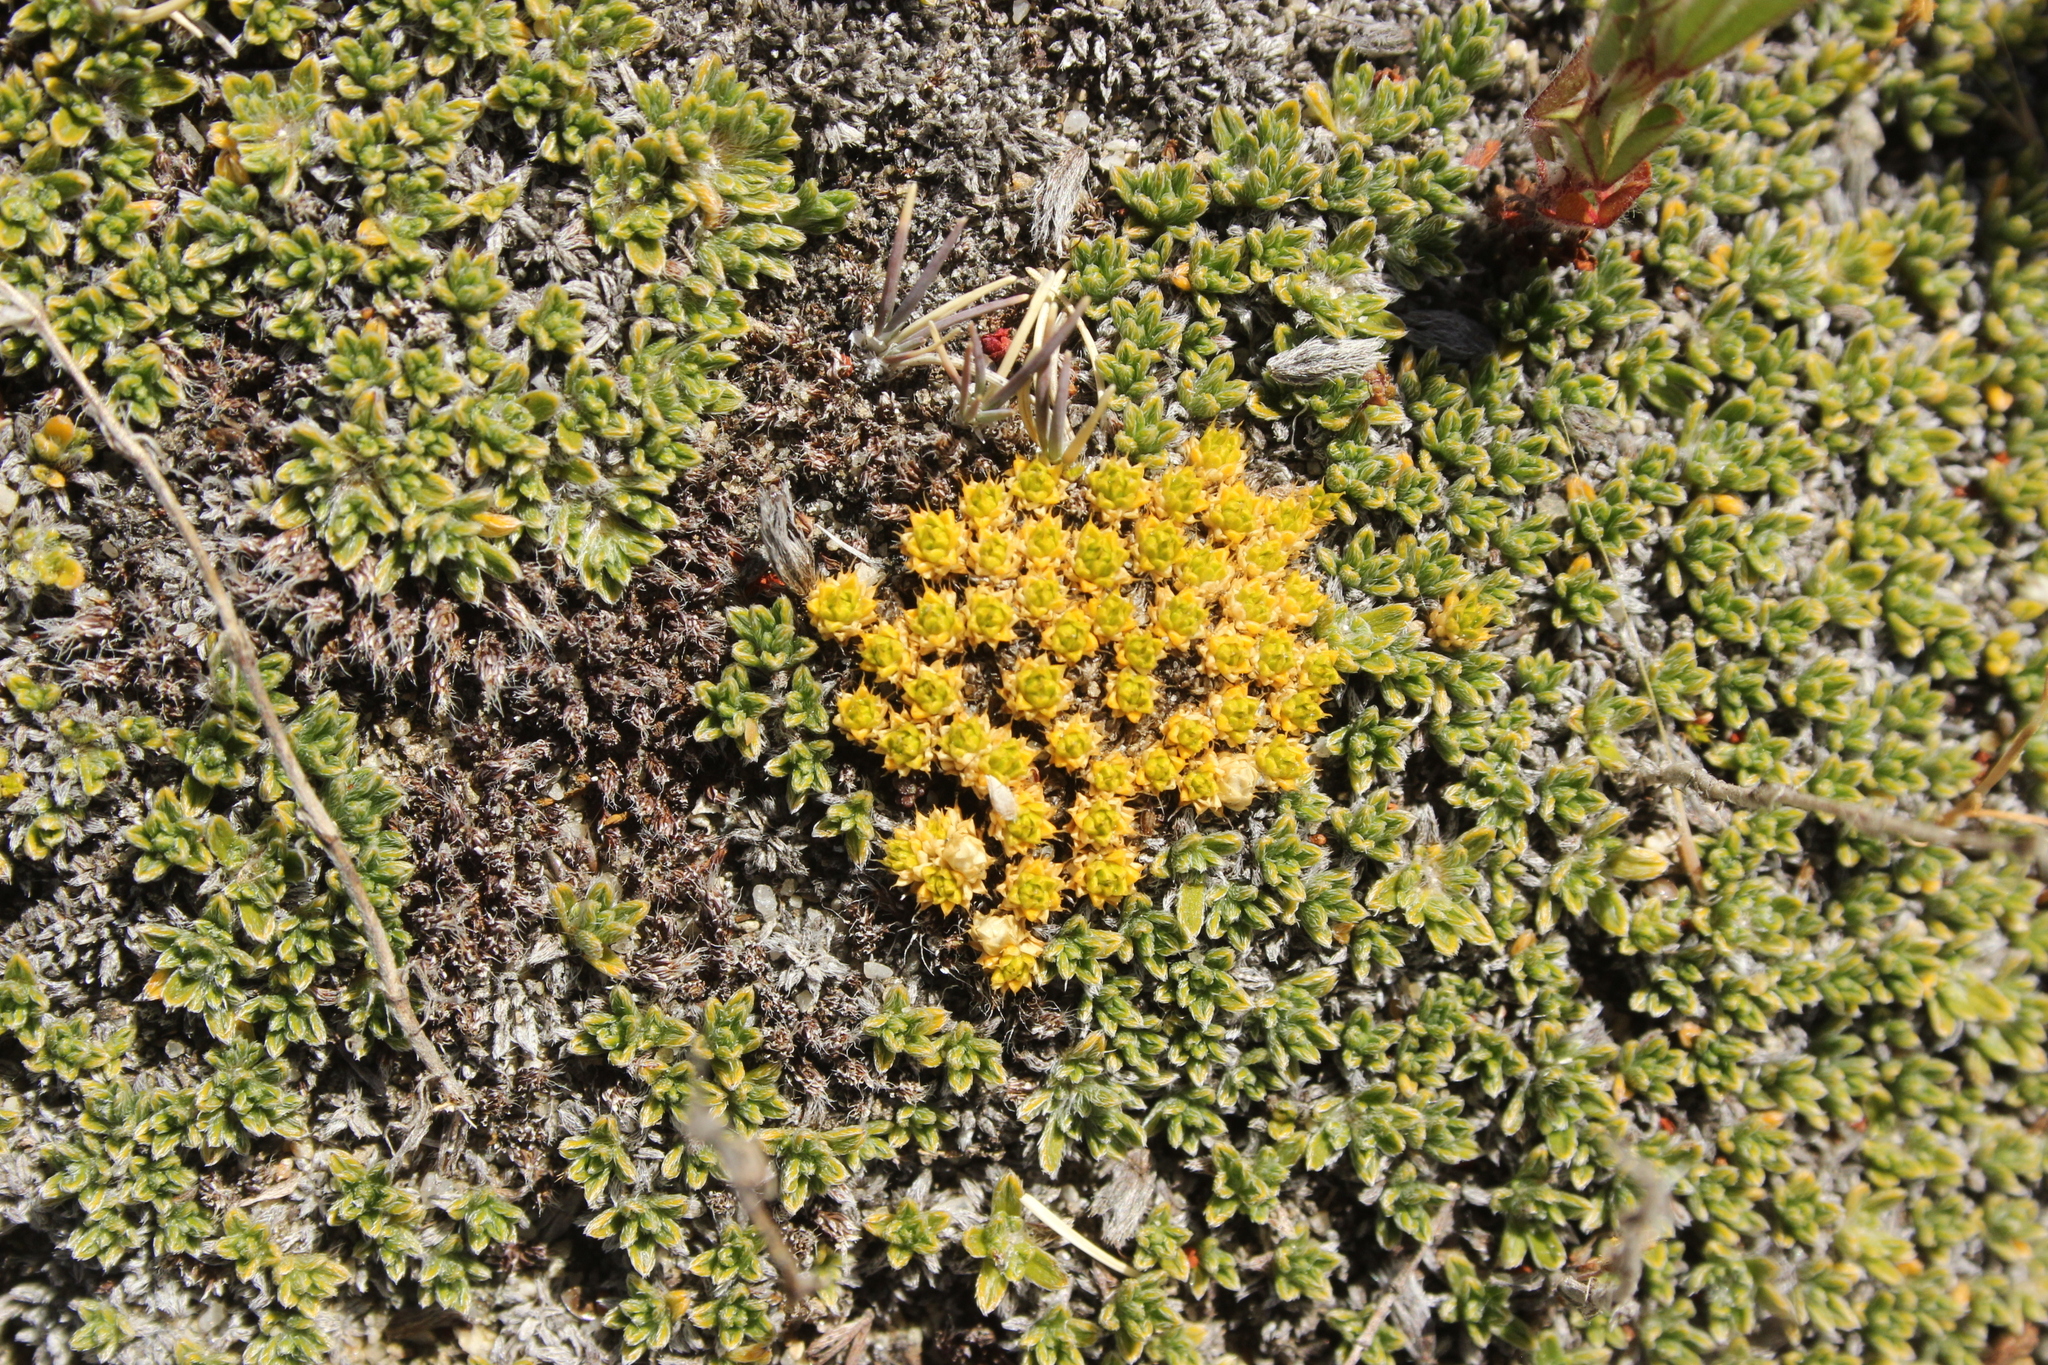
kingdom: Plantae
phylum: Tracheophyta
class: Magnoliopsida
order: Caryophyllales
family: Caryophyllaceae
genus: Colobanthus
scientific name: Colobanthus brevisepalus
